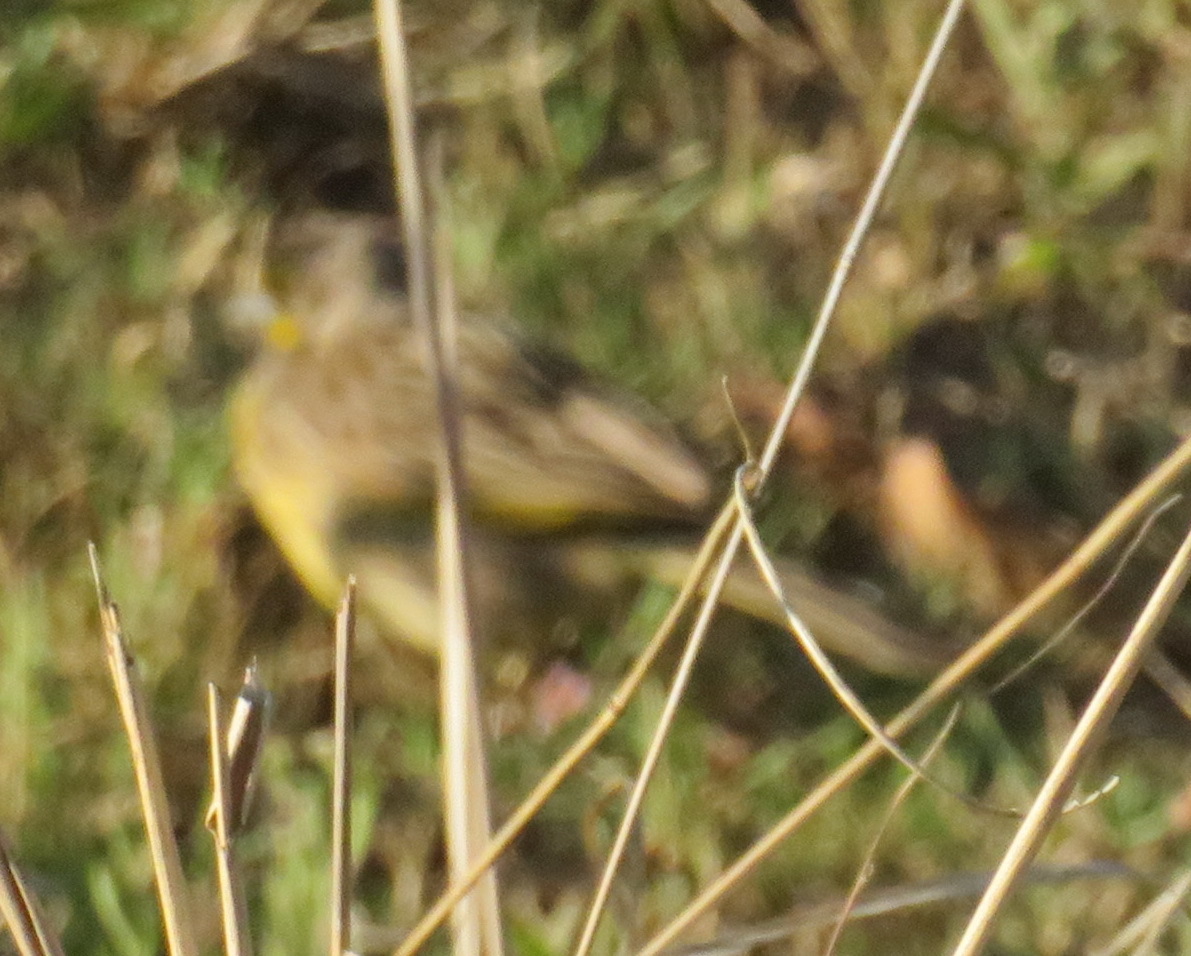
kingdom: Animalia
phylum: Chordata
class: Aves
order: Passeriformes
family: Motacillidae
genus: Macronyx
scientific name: Macronyx croceus
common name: Yellow-throated longclaw
